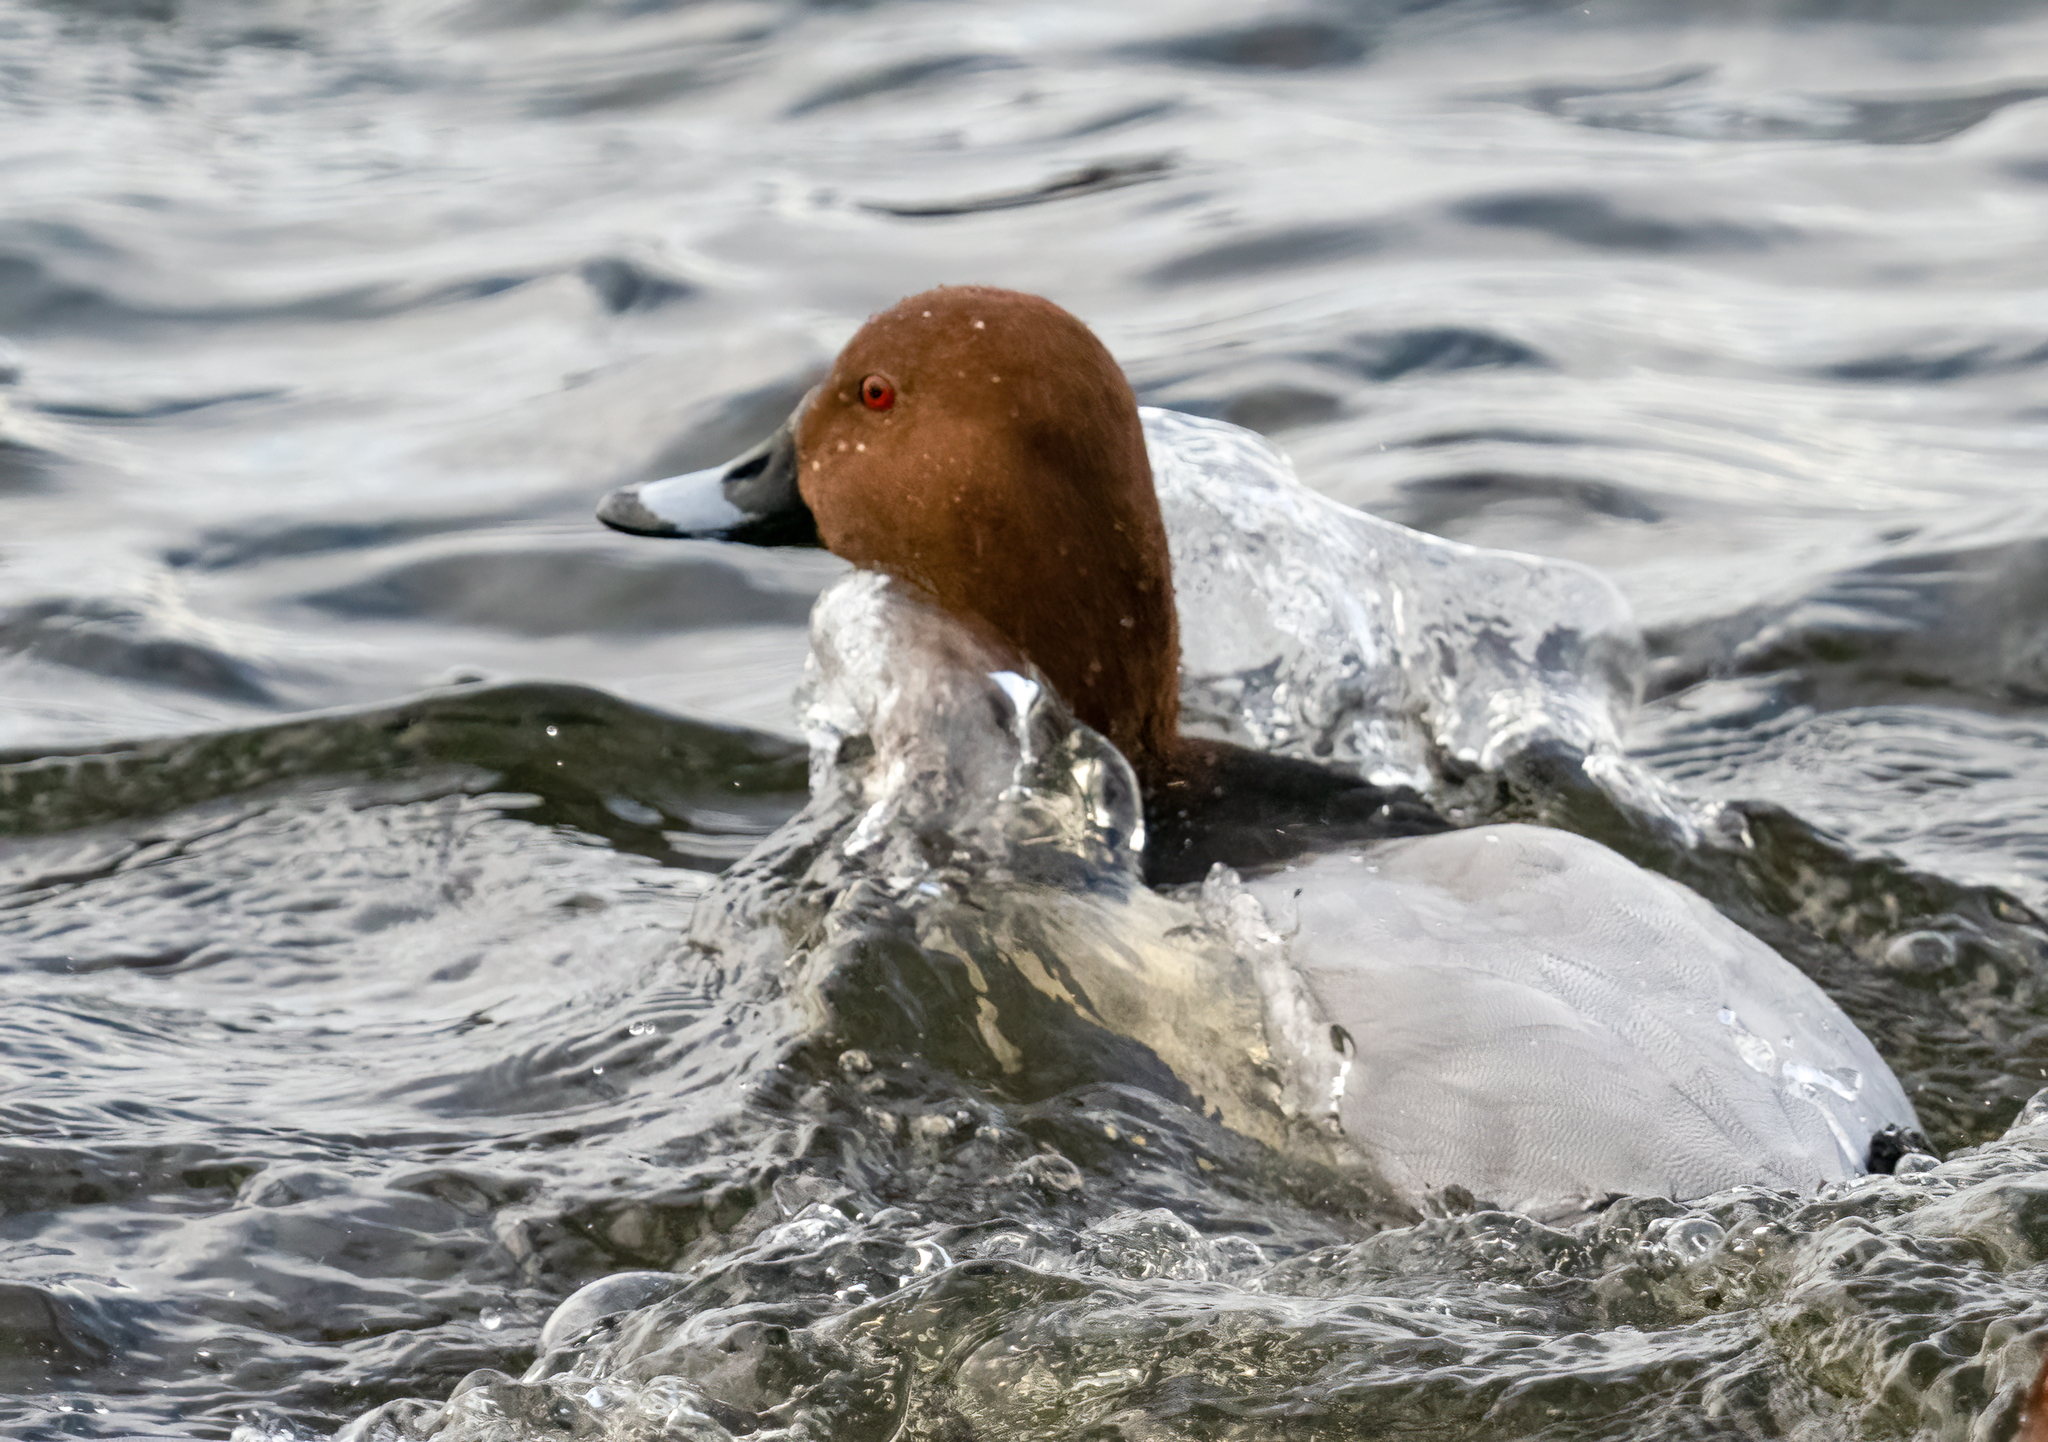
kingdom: Animalia
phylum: Chordata
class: Aves
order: Anseriformes
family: Anatidae
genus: Aythya
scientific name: Aythya ferina
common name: Common pochard
